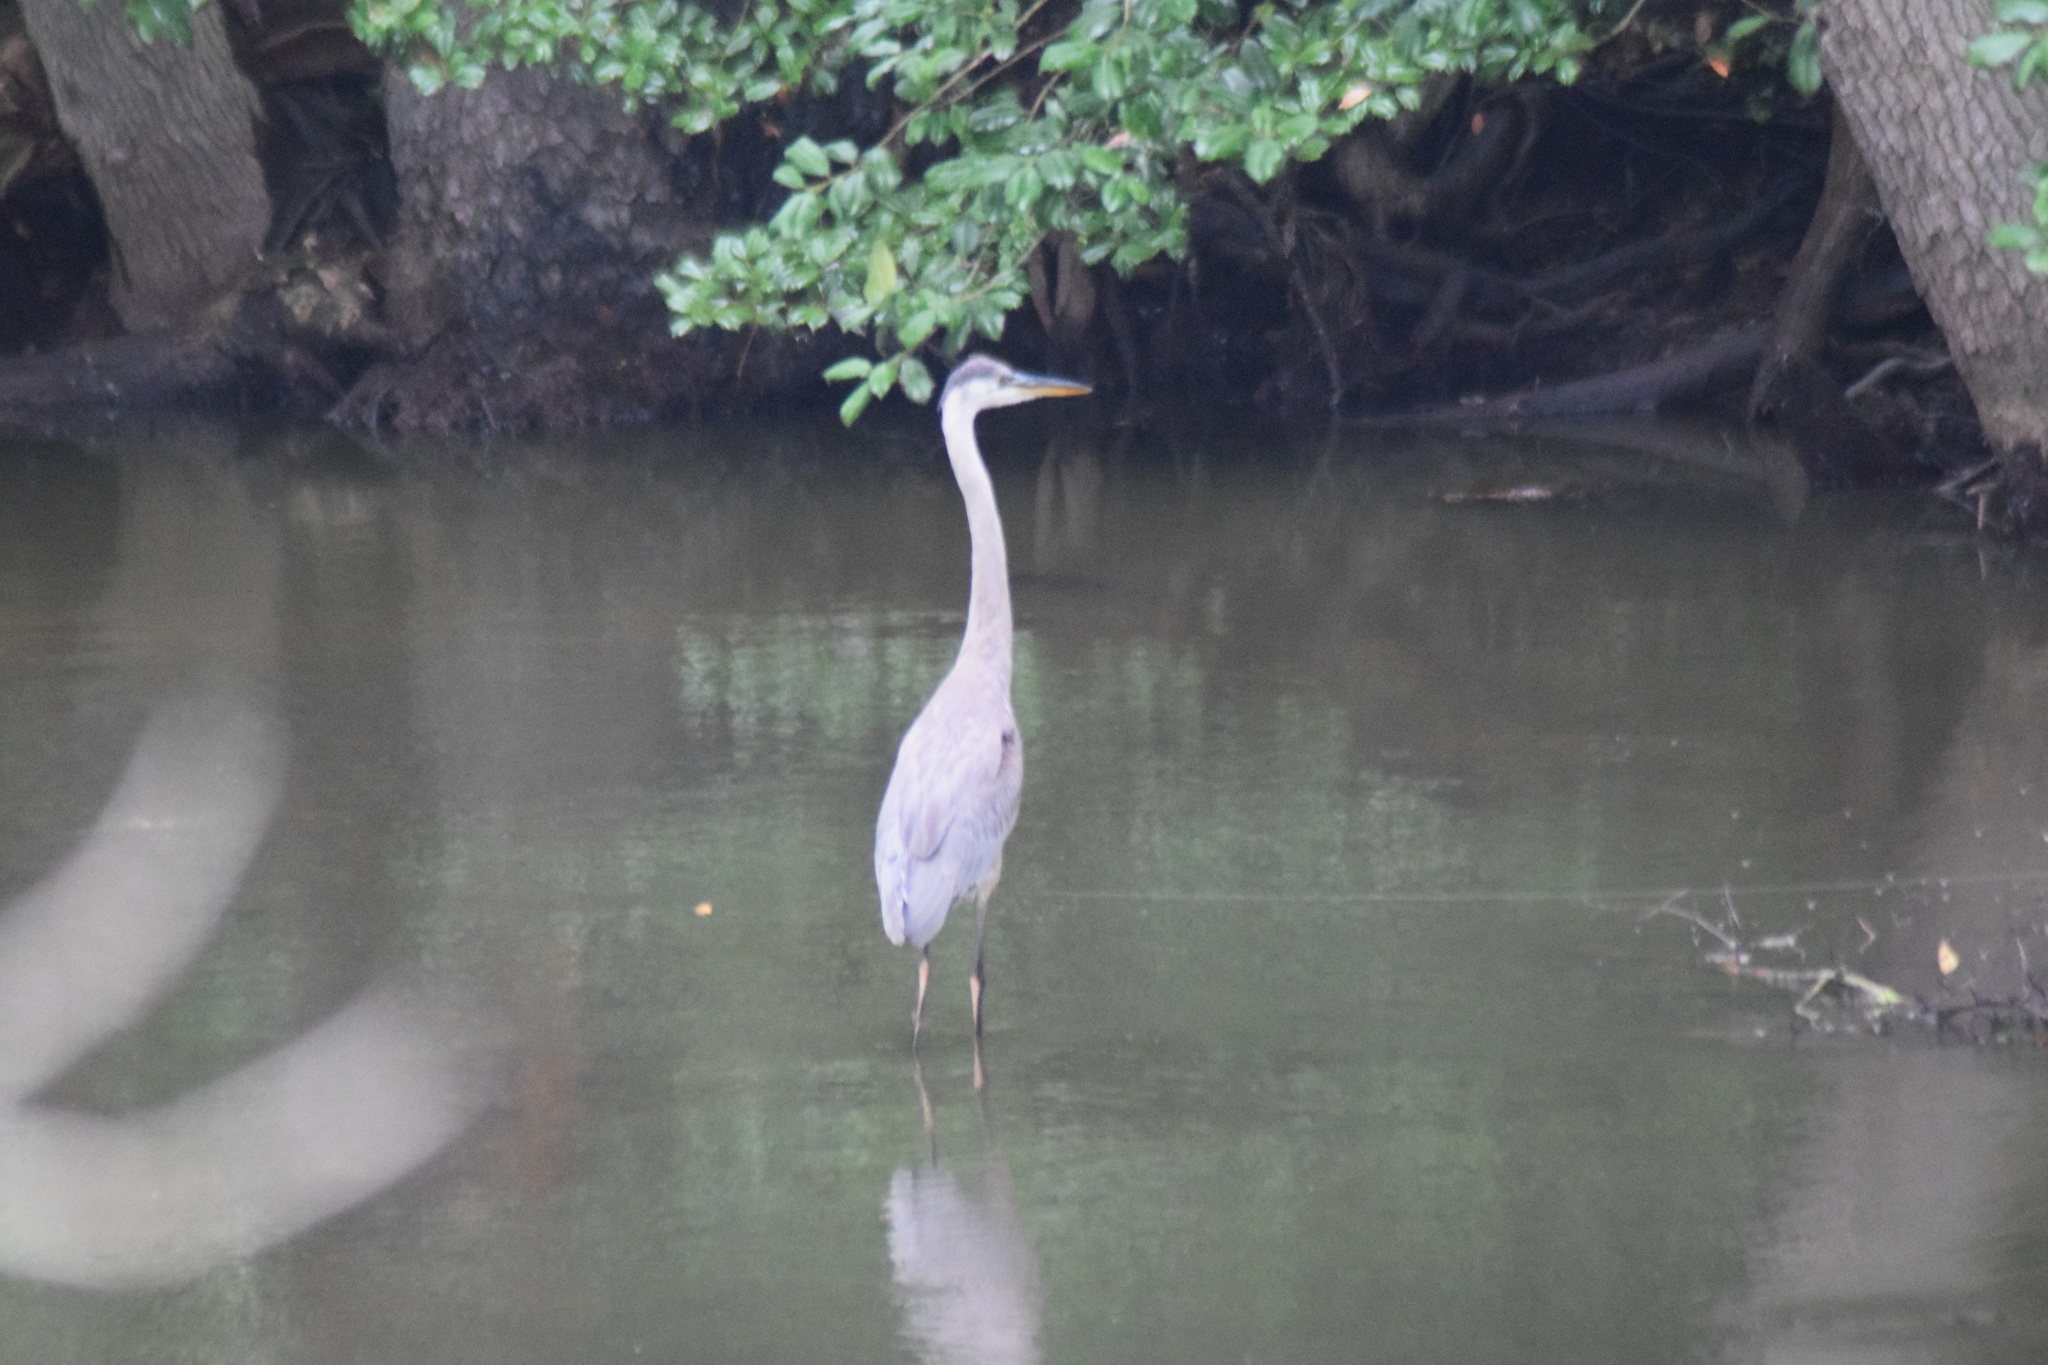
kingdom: Animalia
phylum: Chordata
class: Aves
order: Pelecaniformes
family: Ardeidae
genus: Ardea
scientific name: Ardea herodias
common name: Great blue heron
